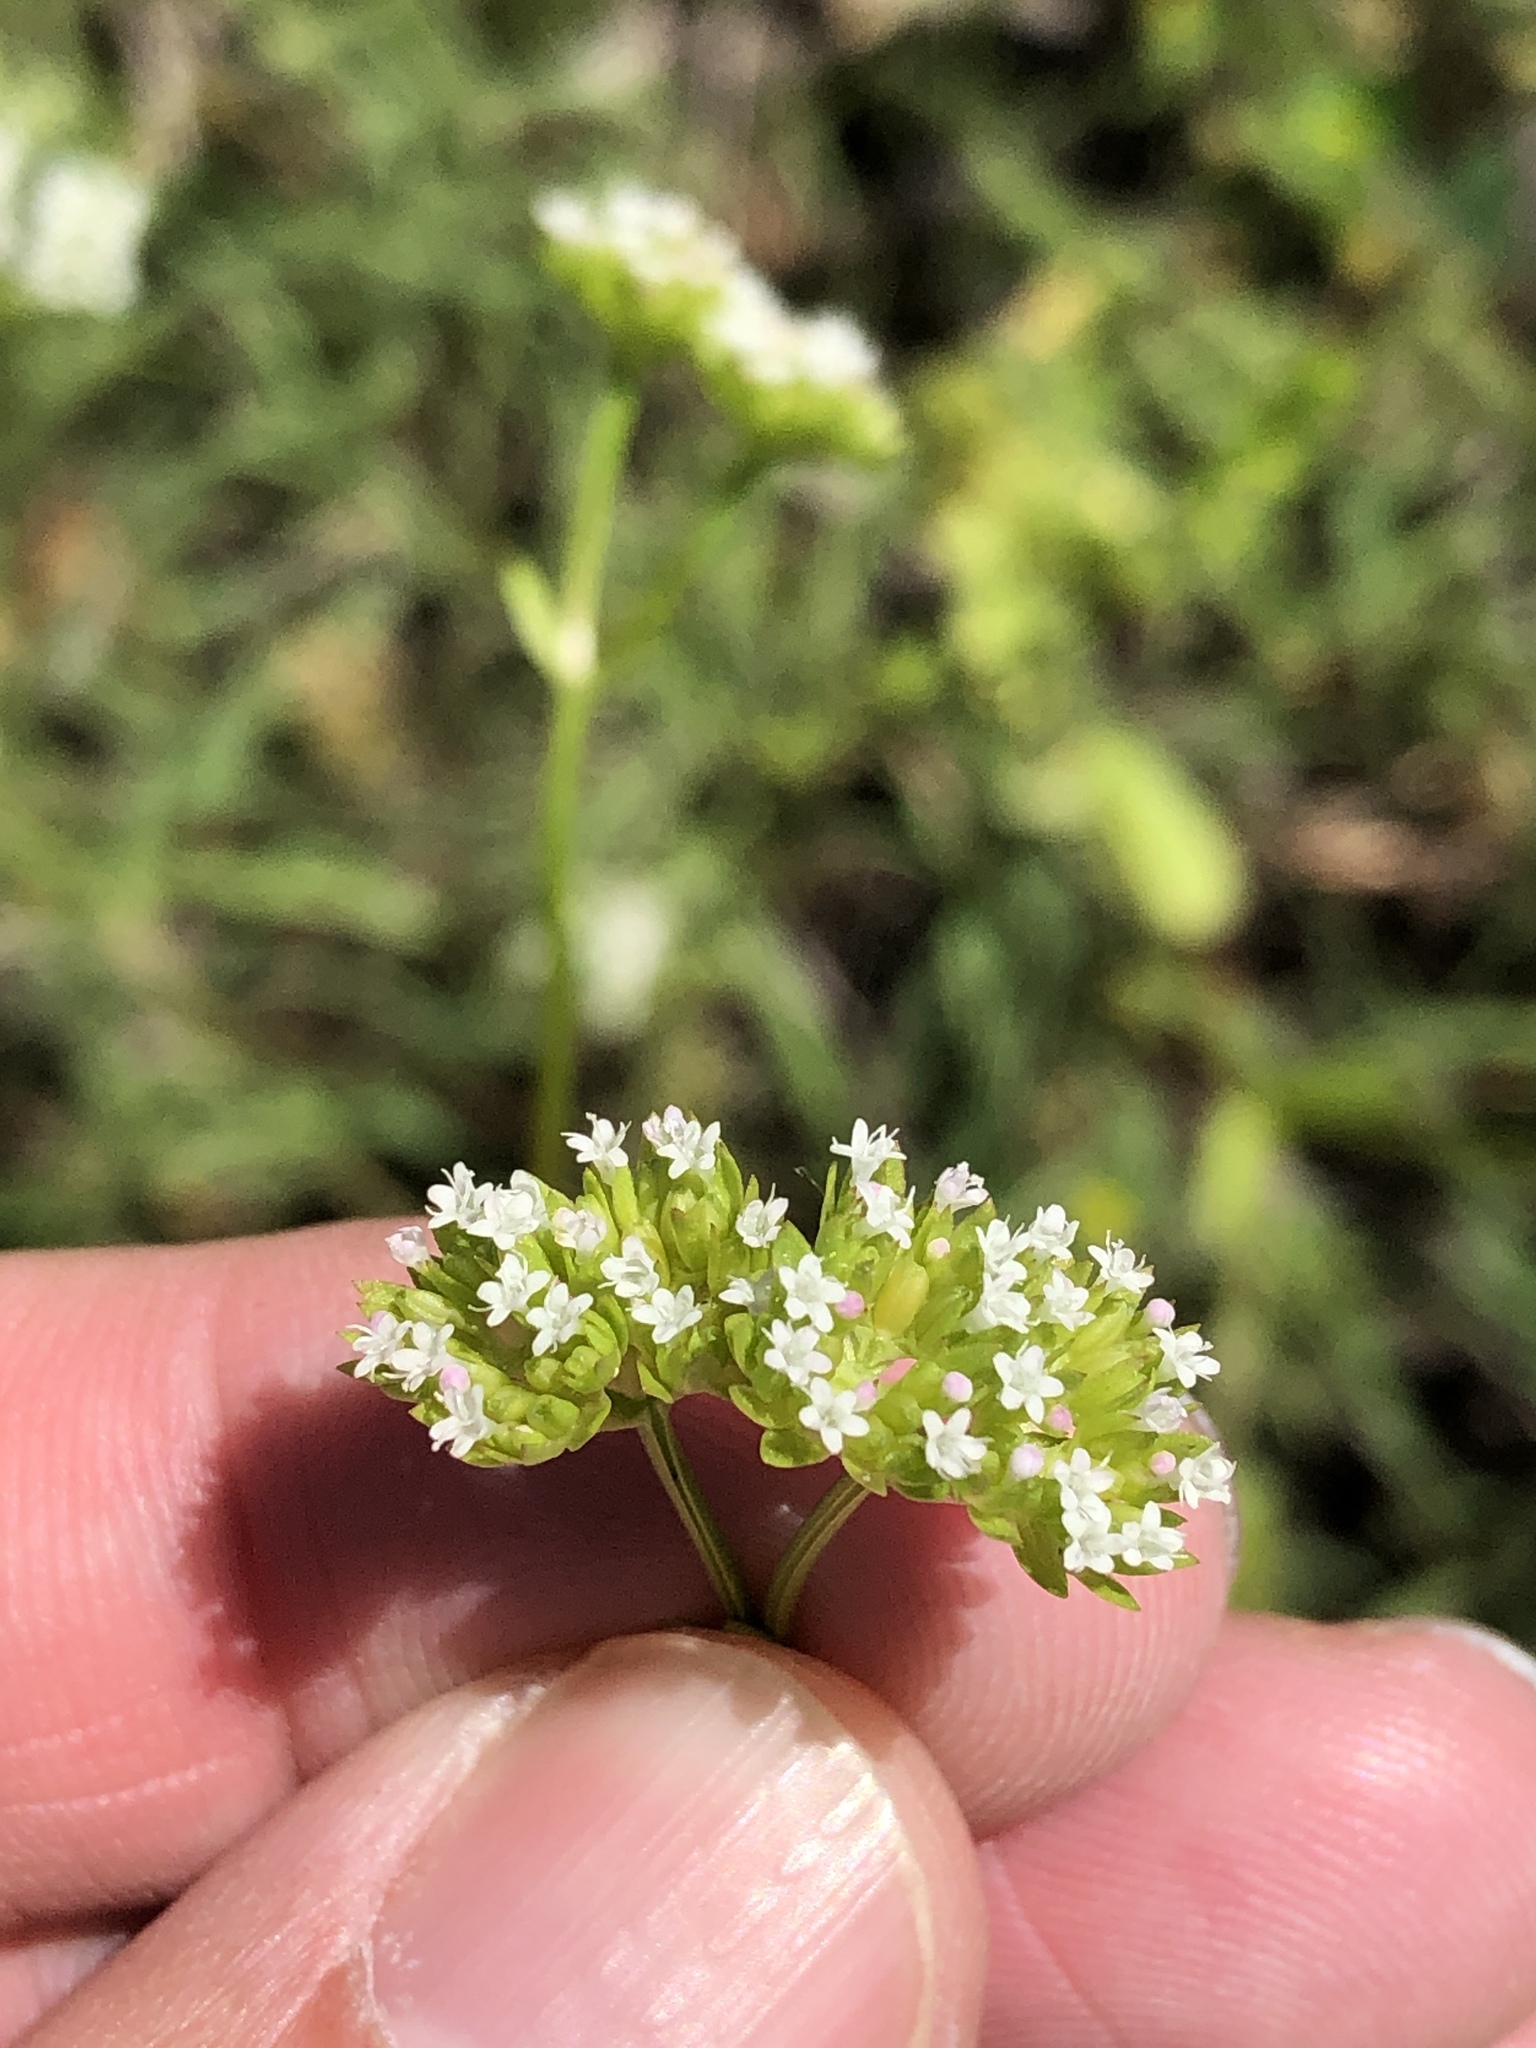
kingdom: Plantae
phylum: Tracheophyta
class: Magnoliopsida
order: Dipsacales
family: Caprifoliaceae
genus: Valerianella
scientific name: Valerianella radiata
